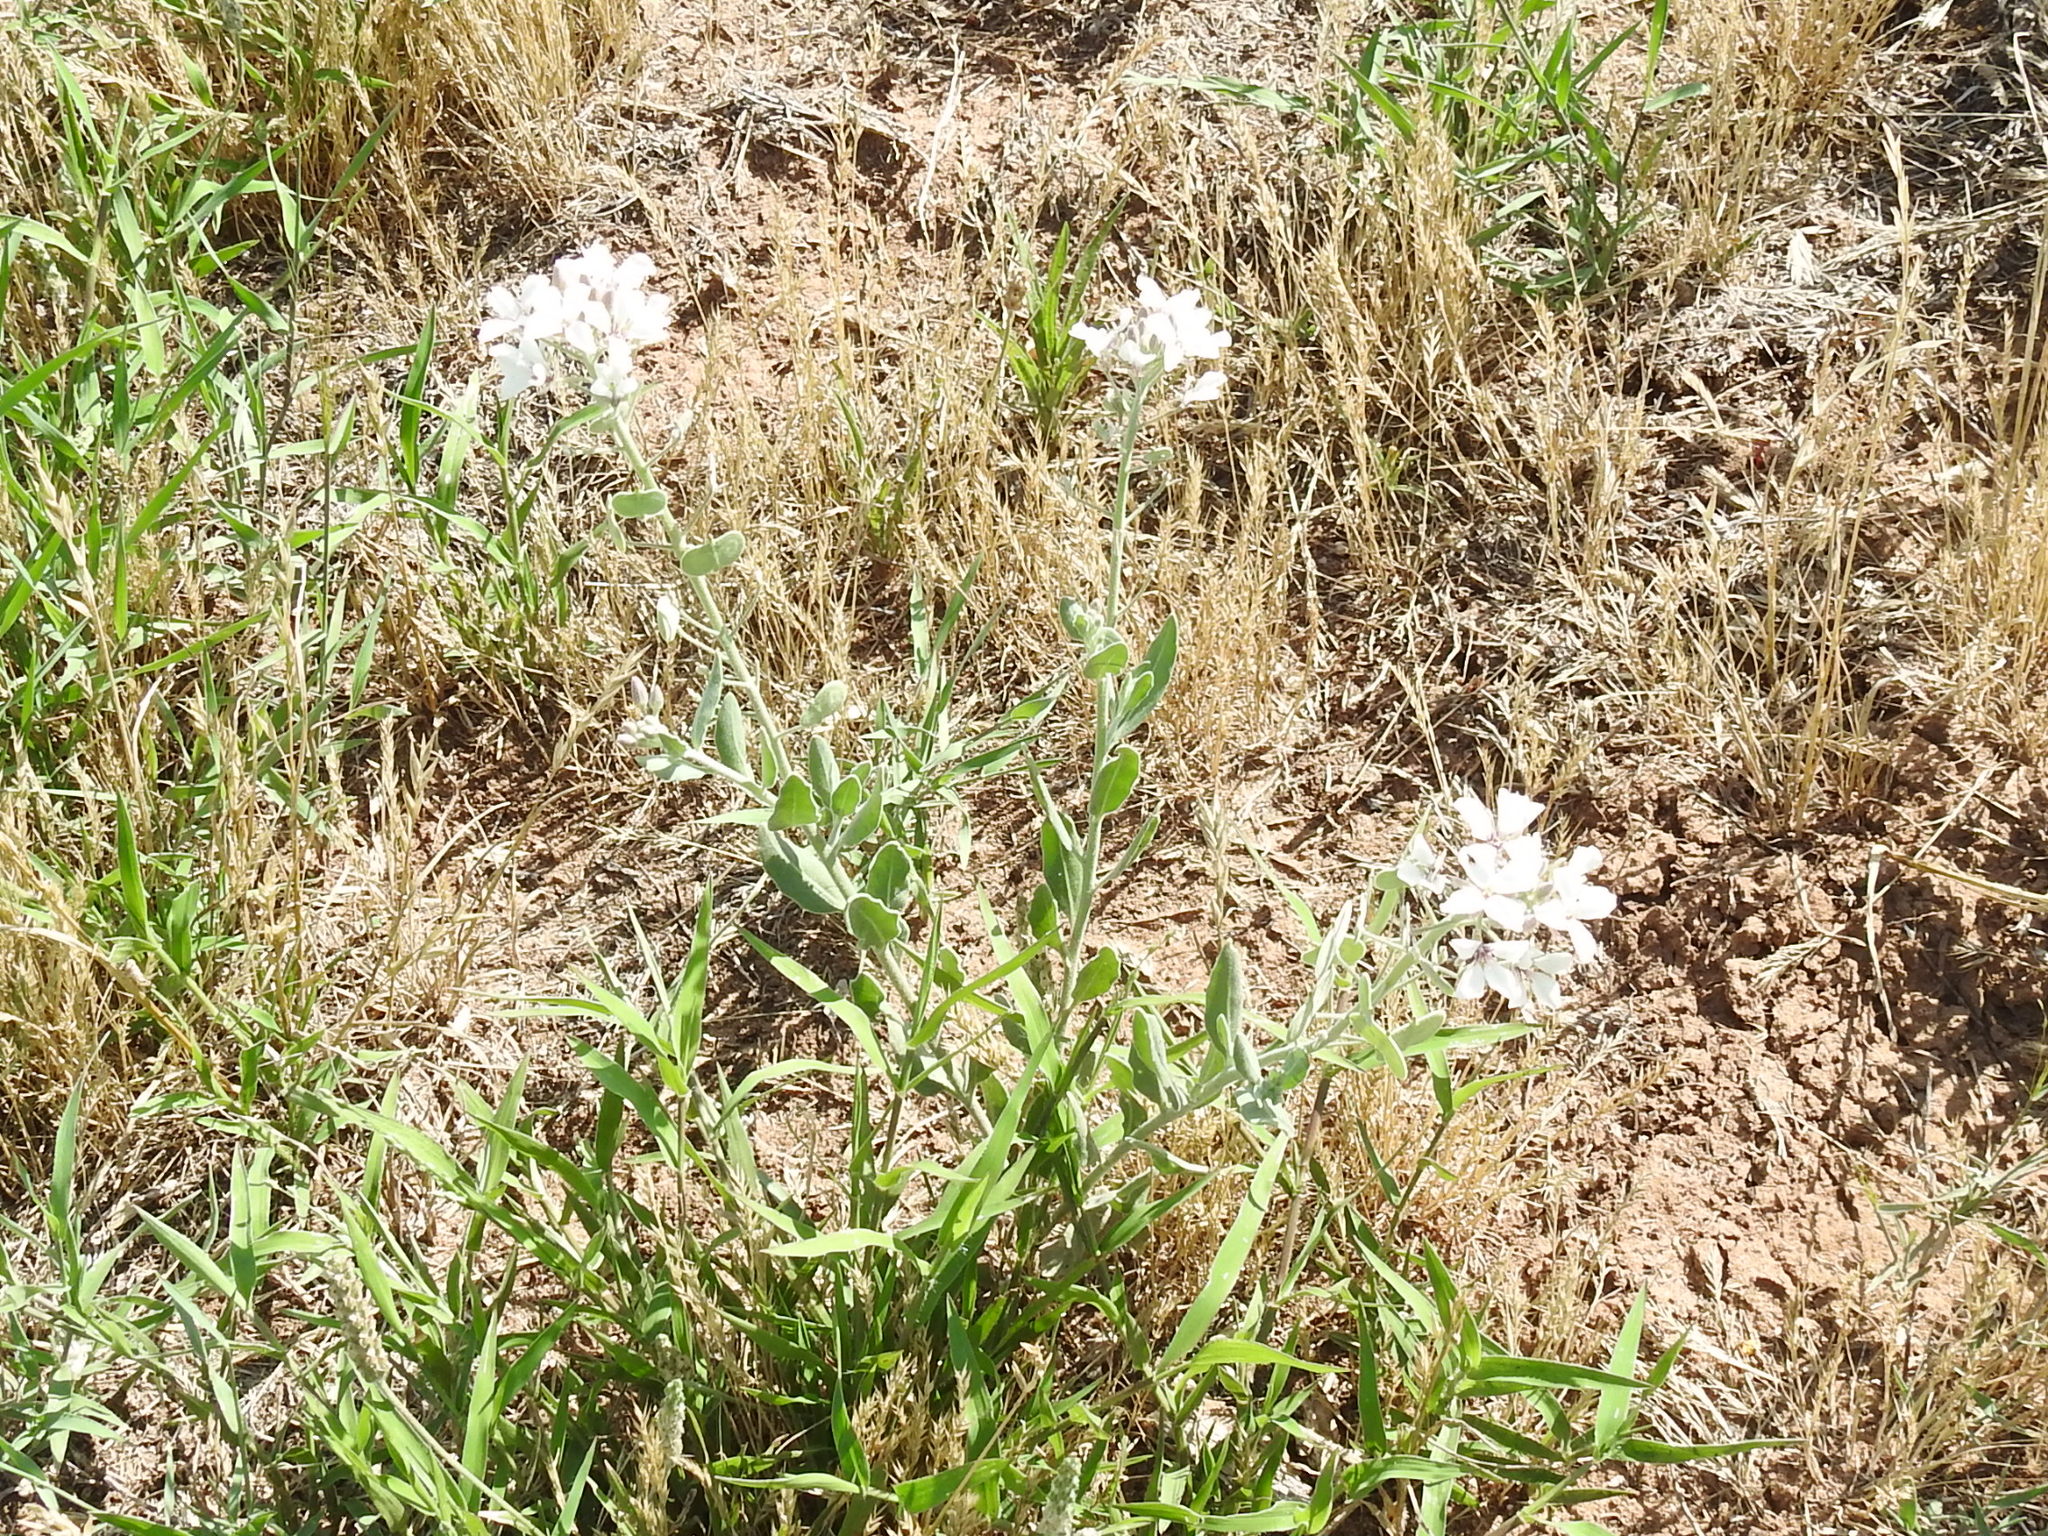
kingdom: Plantae
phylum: Tracheophyta
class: Magnoliopsida
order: Brassicales
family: Brassicaceae
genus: Dimorphocarpa
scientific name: Dimorphocarpa candicans
